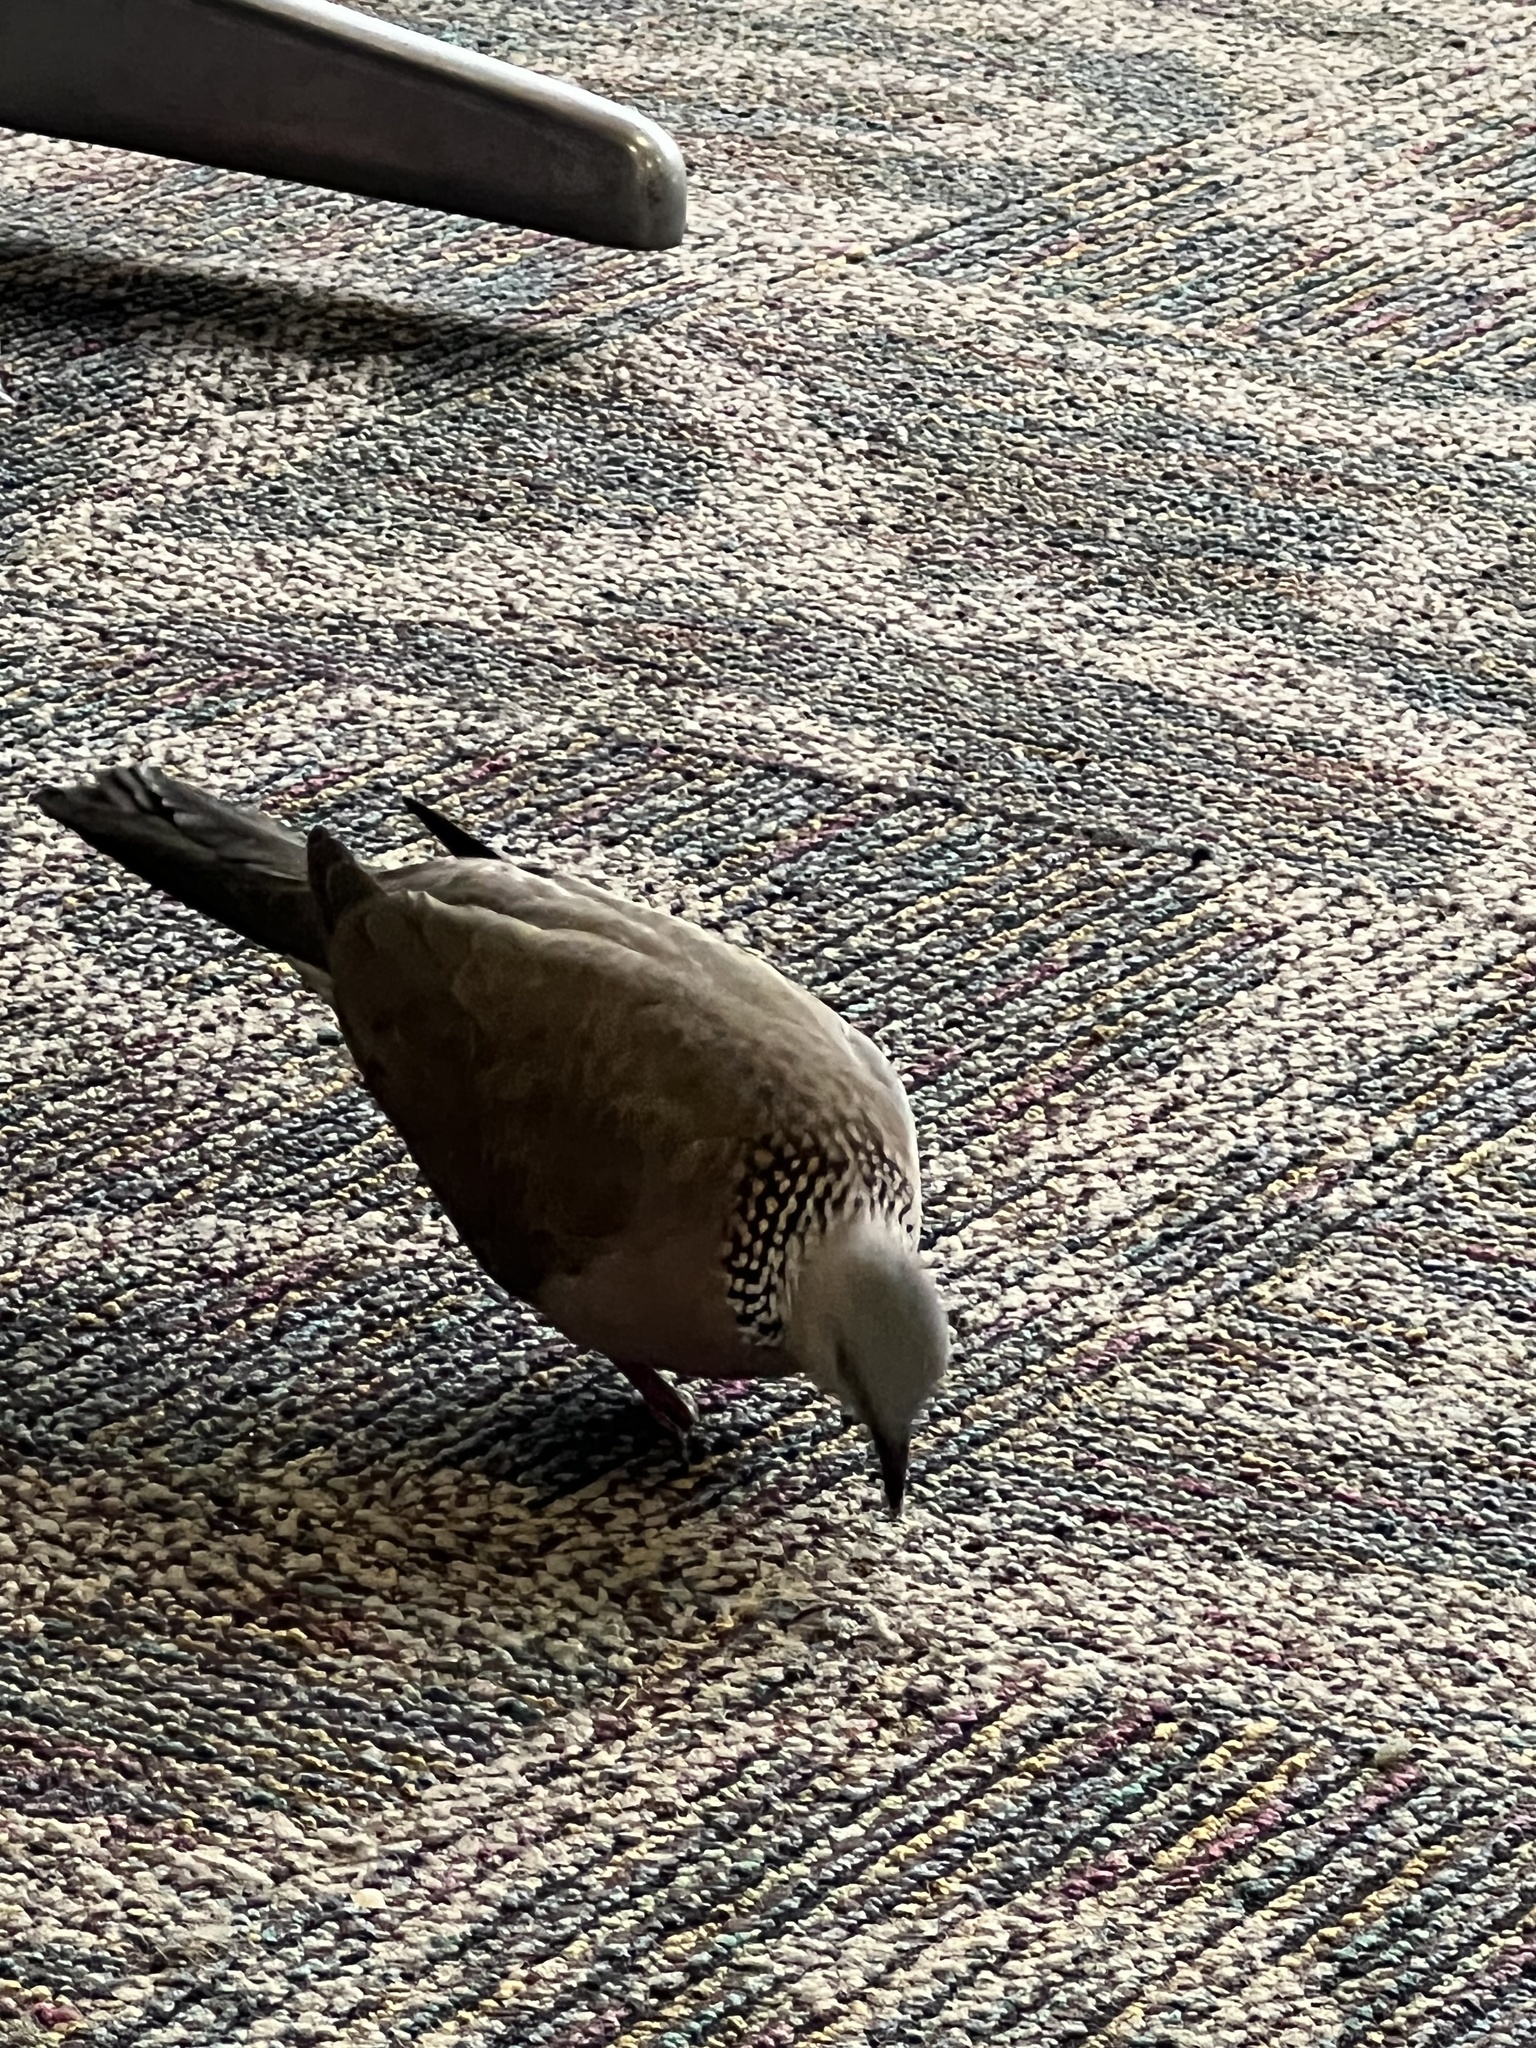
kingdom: Animalia
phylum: Chordata
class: Aves
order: Columbiformes
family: Columbidae
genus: Spilopelia
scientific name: Spilopelia chinensis
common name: Spotted dove
